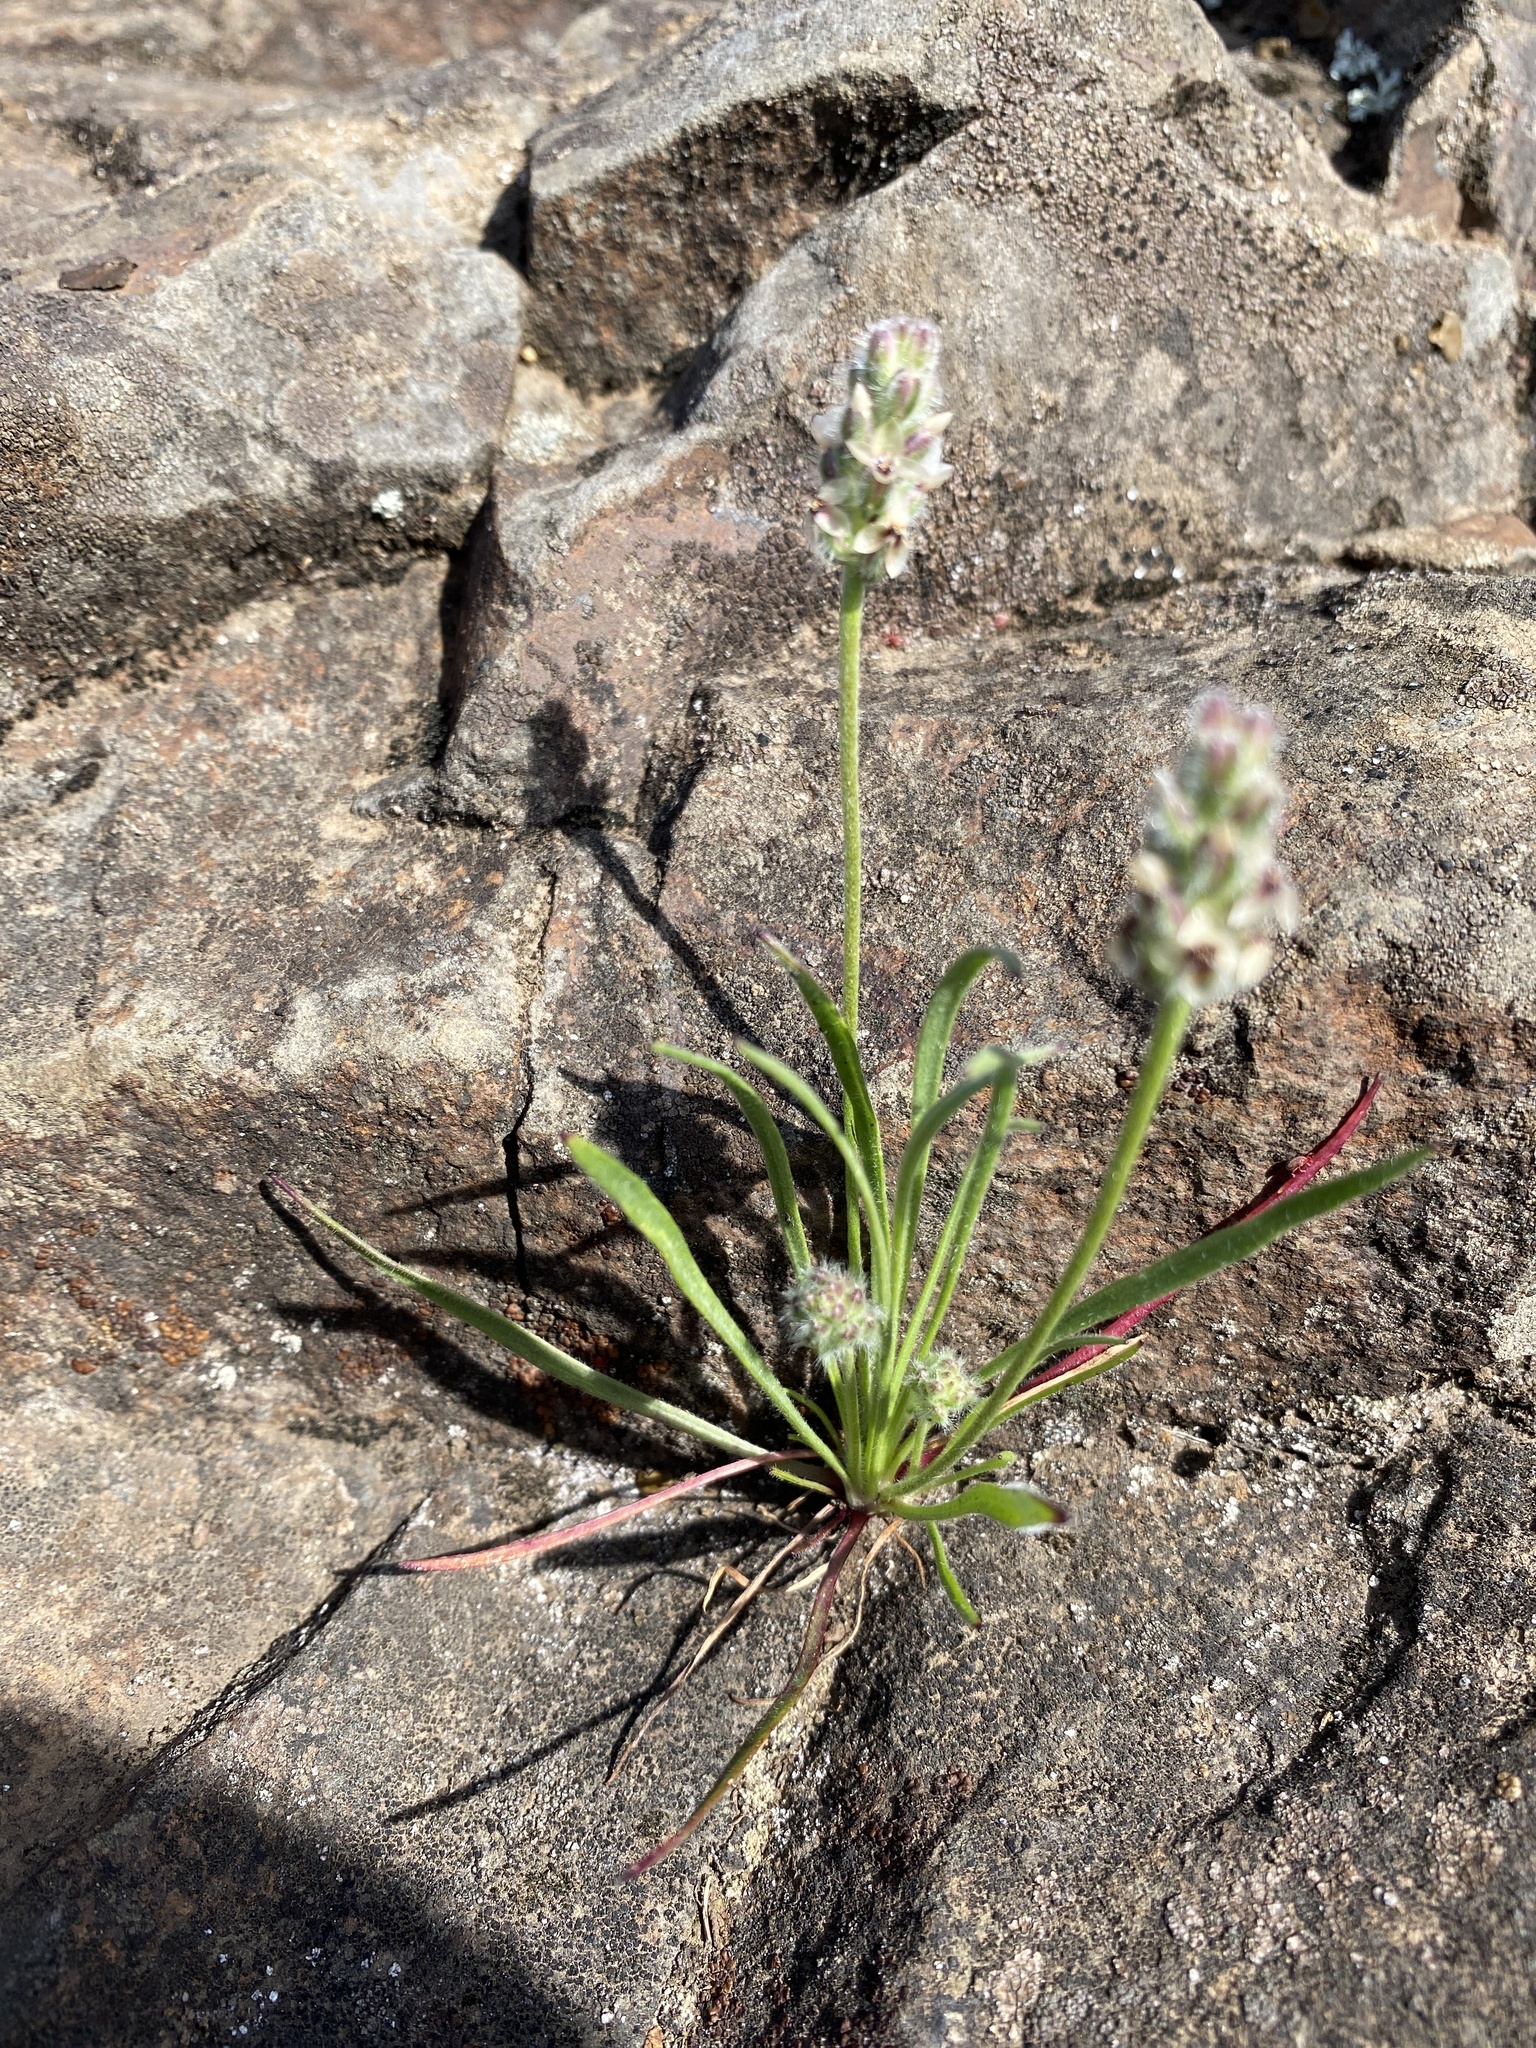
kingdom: Plantae
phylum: Tracheophyta
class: Magnoliopsida
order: Lamiales
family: Plantaginaceae
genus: Plantago
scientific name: Plantago erecta
